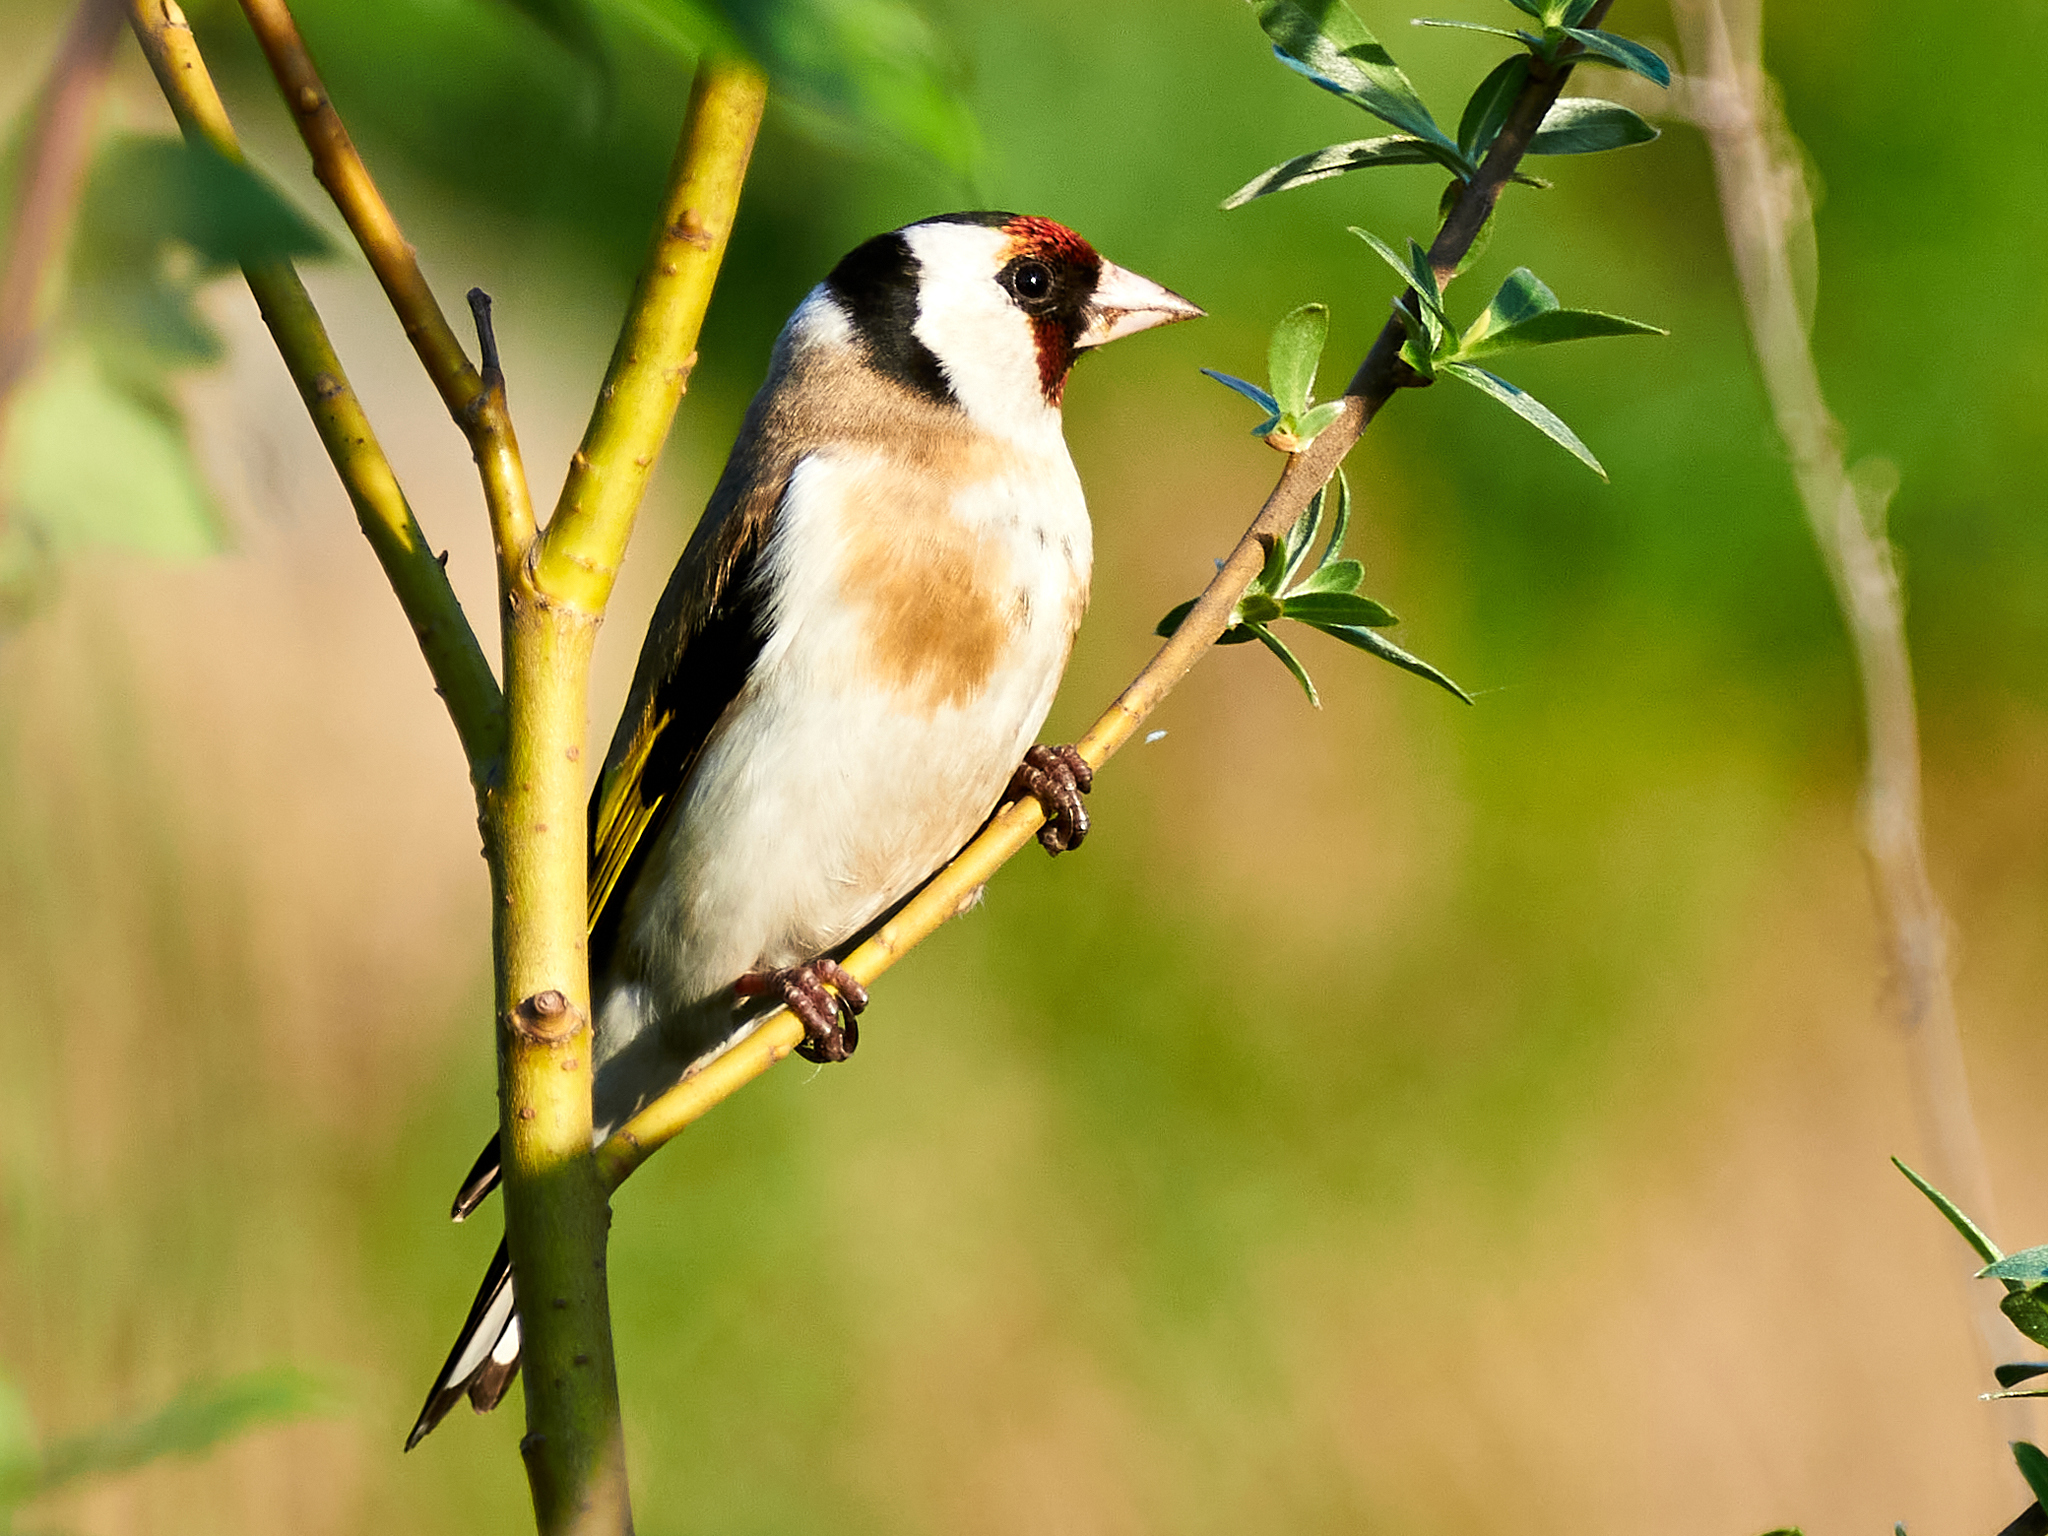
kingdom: Animalia
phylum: Chordata
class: Aves
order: Passeriformes
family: Fringillidae
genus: Carduelis
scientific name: Carduelis carduelis
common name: European goldfinch
